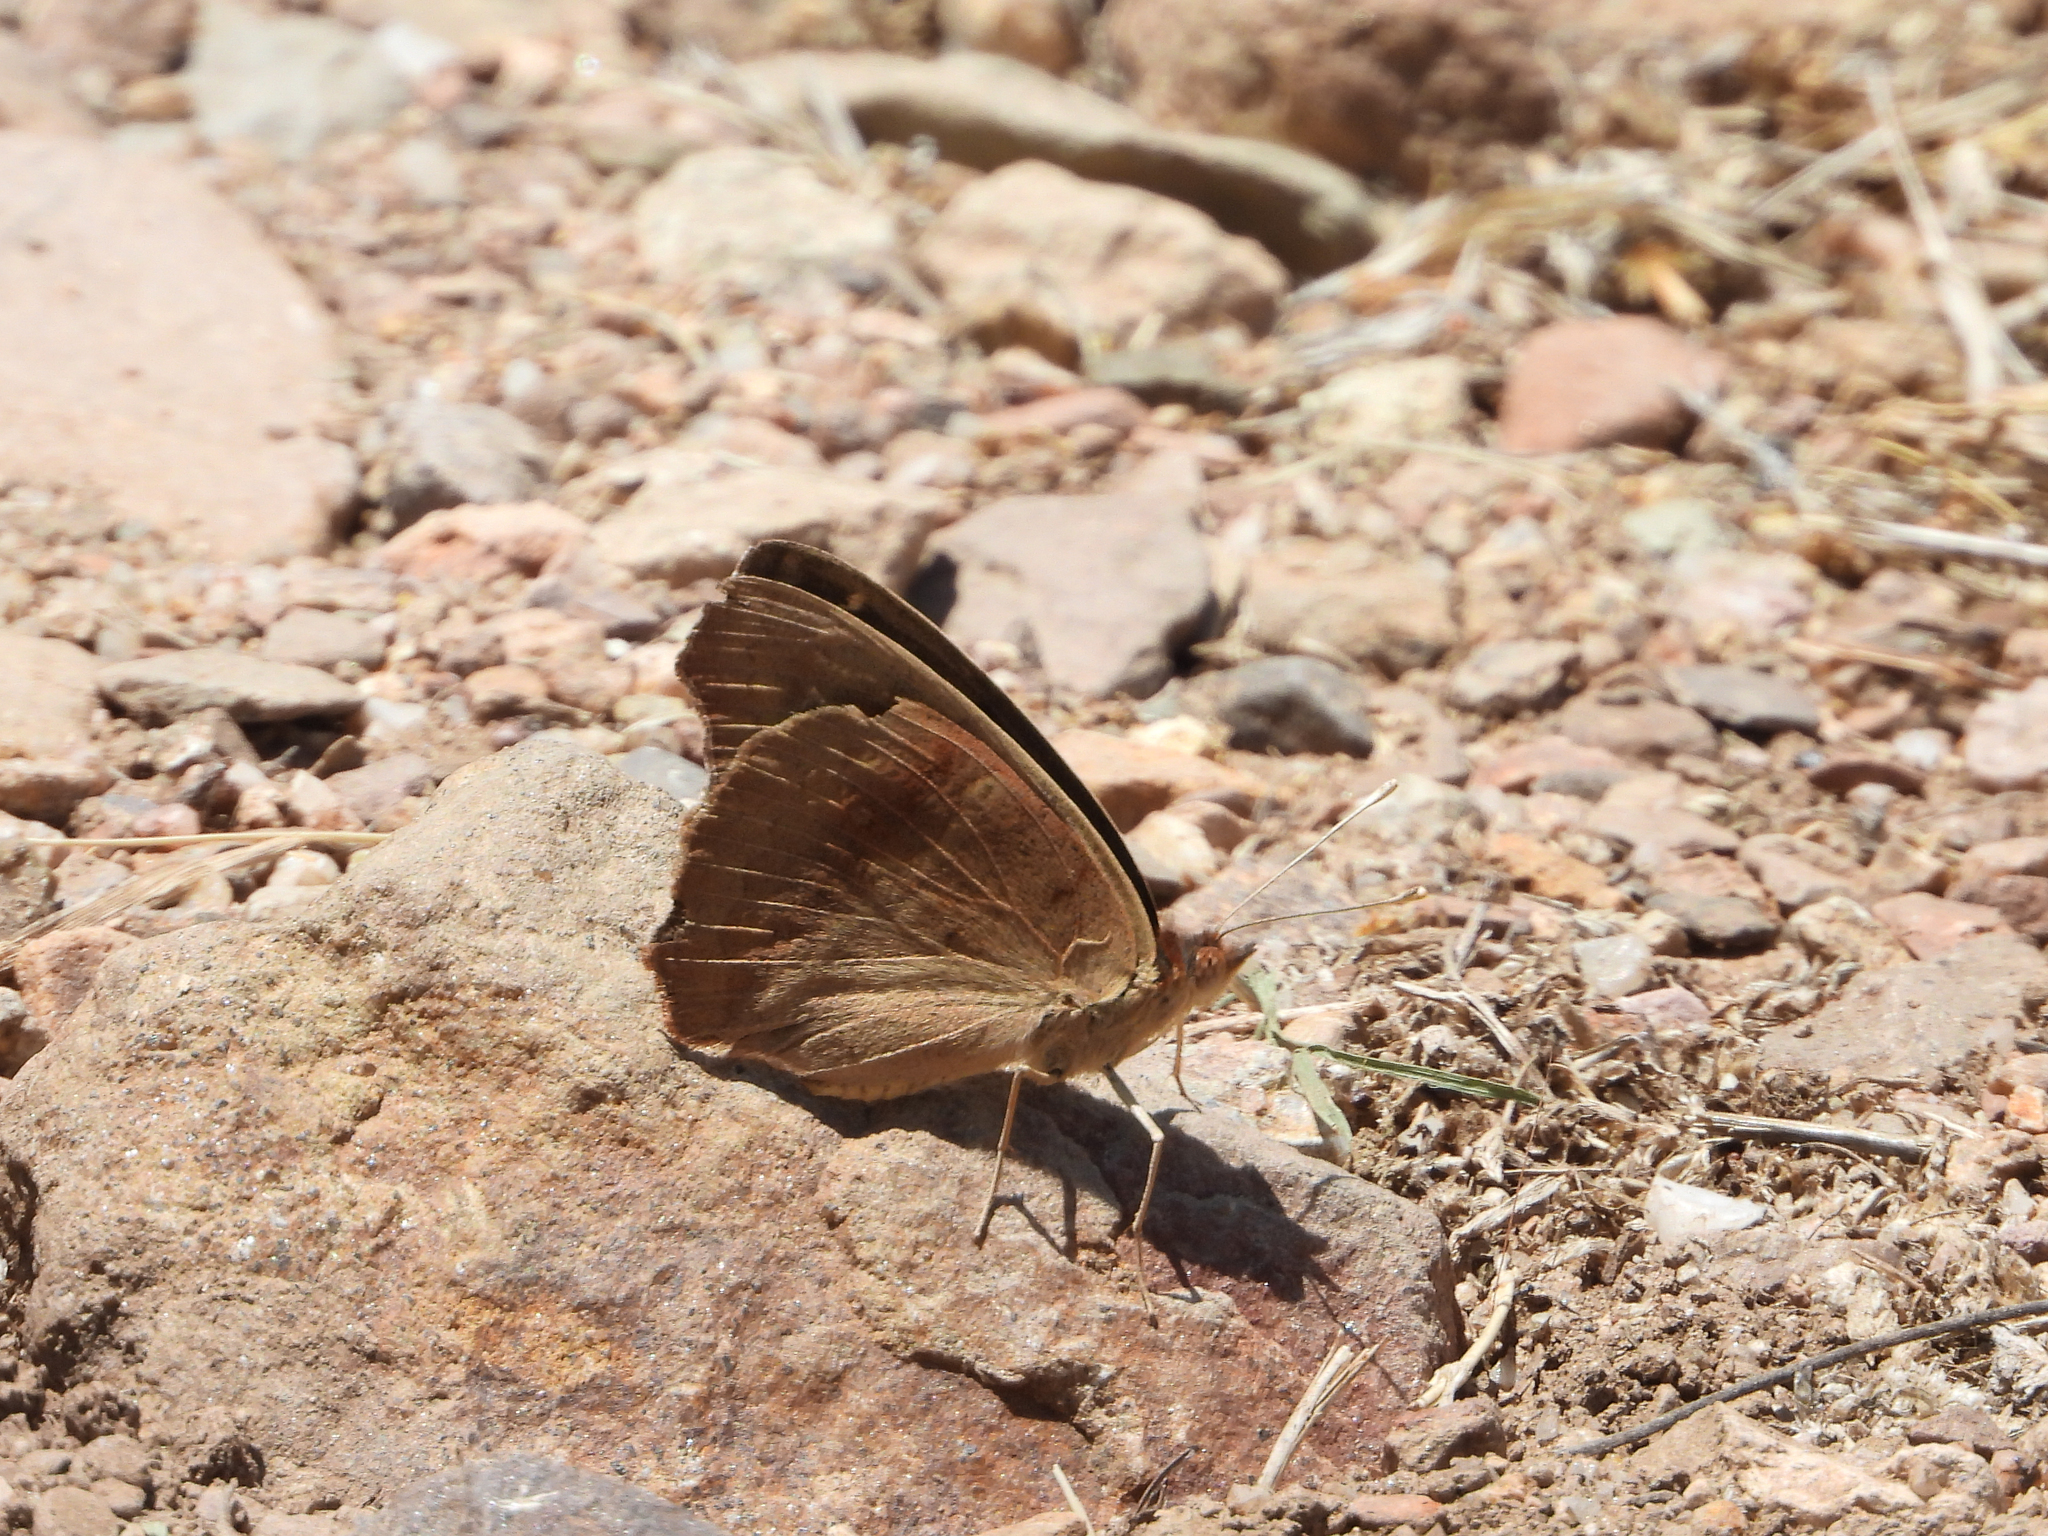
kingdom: Animalia
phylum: Arthropoda
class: Insecta
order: Lepidoptera
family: Nymphalidae
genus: Junonia
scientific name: Junonia nigrosuffusa
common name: Dark buckeye
